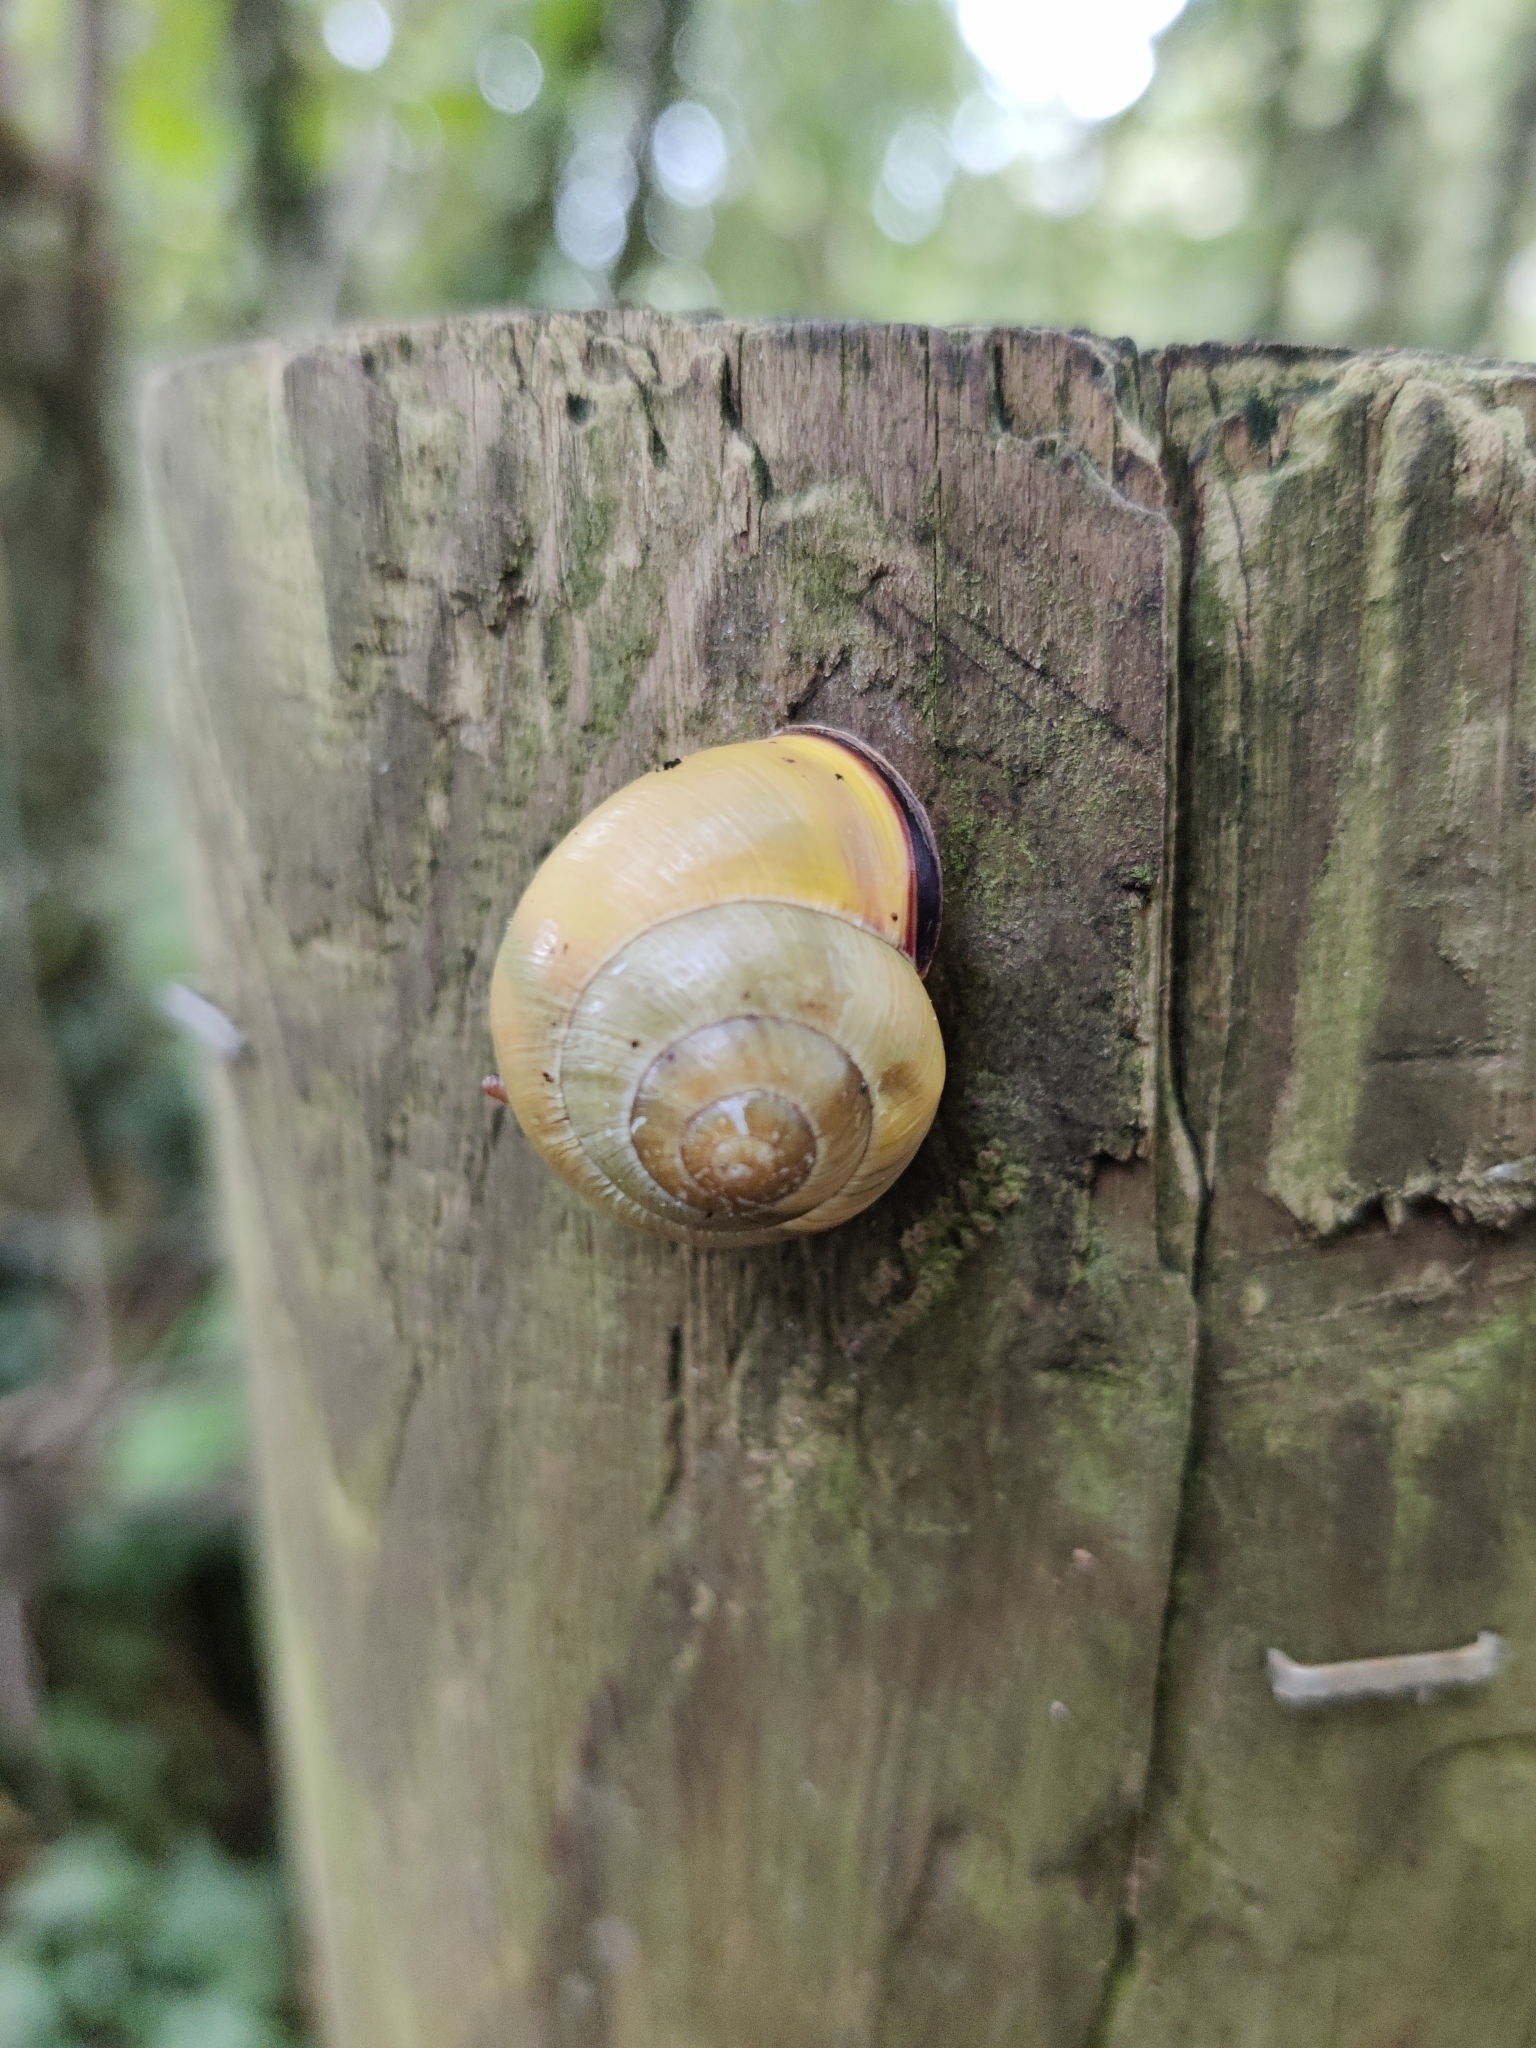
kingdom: Animalia
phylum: Mollusca
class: Gastropoda
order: Stylommatophora
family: Helicidae
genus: Cepaea
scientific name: Cepaea nemoralis
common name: Grovesnail
